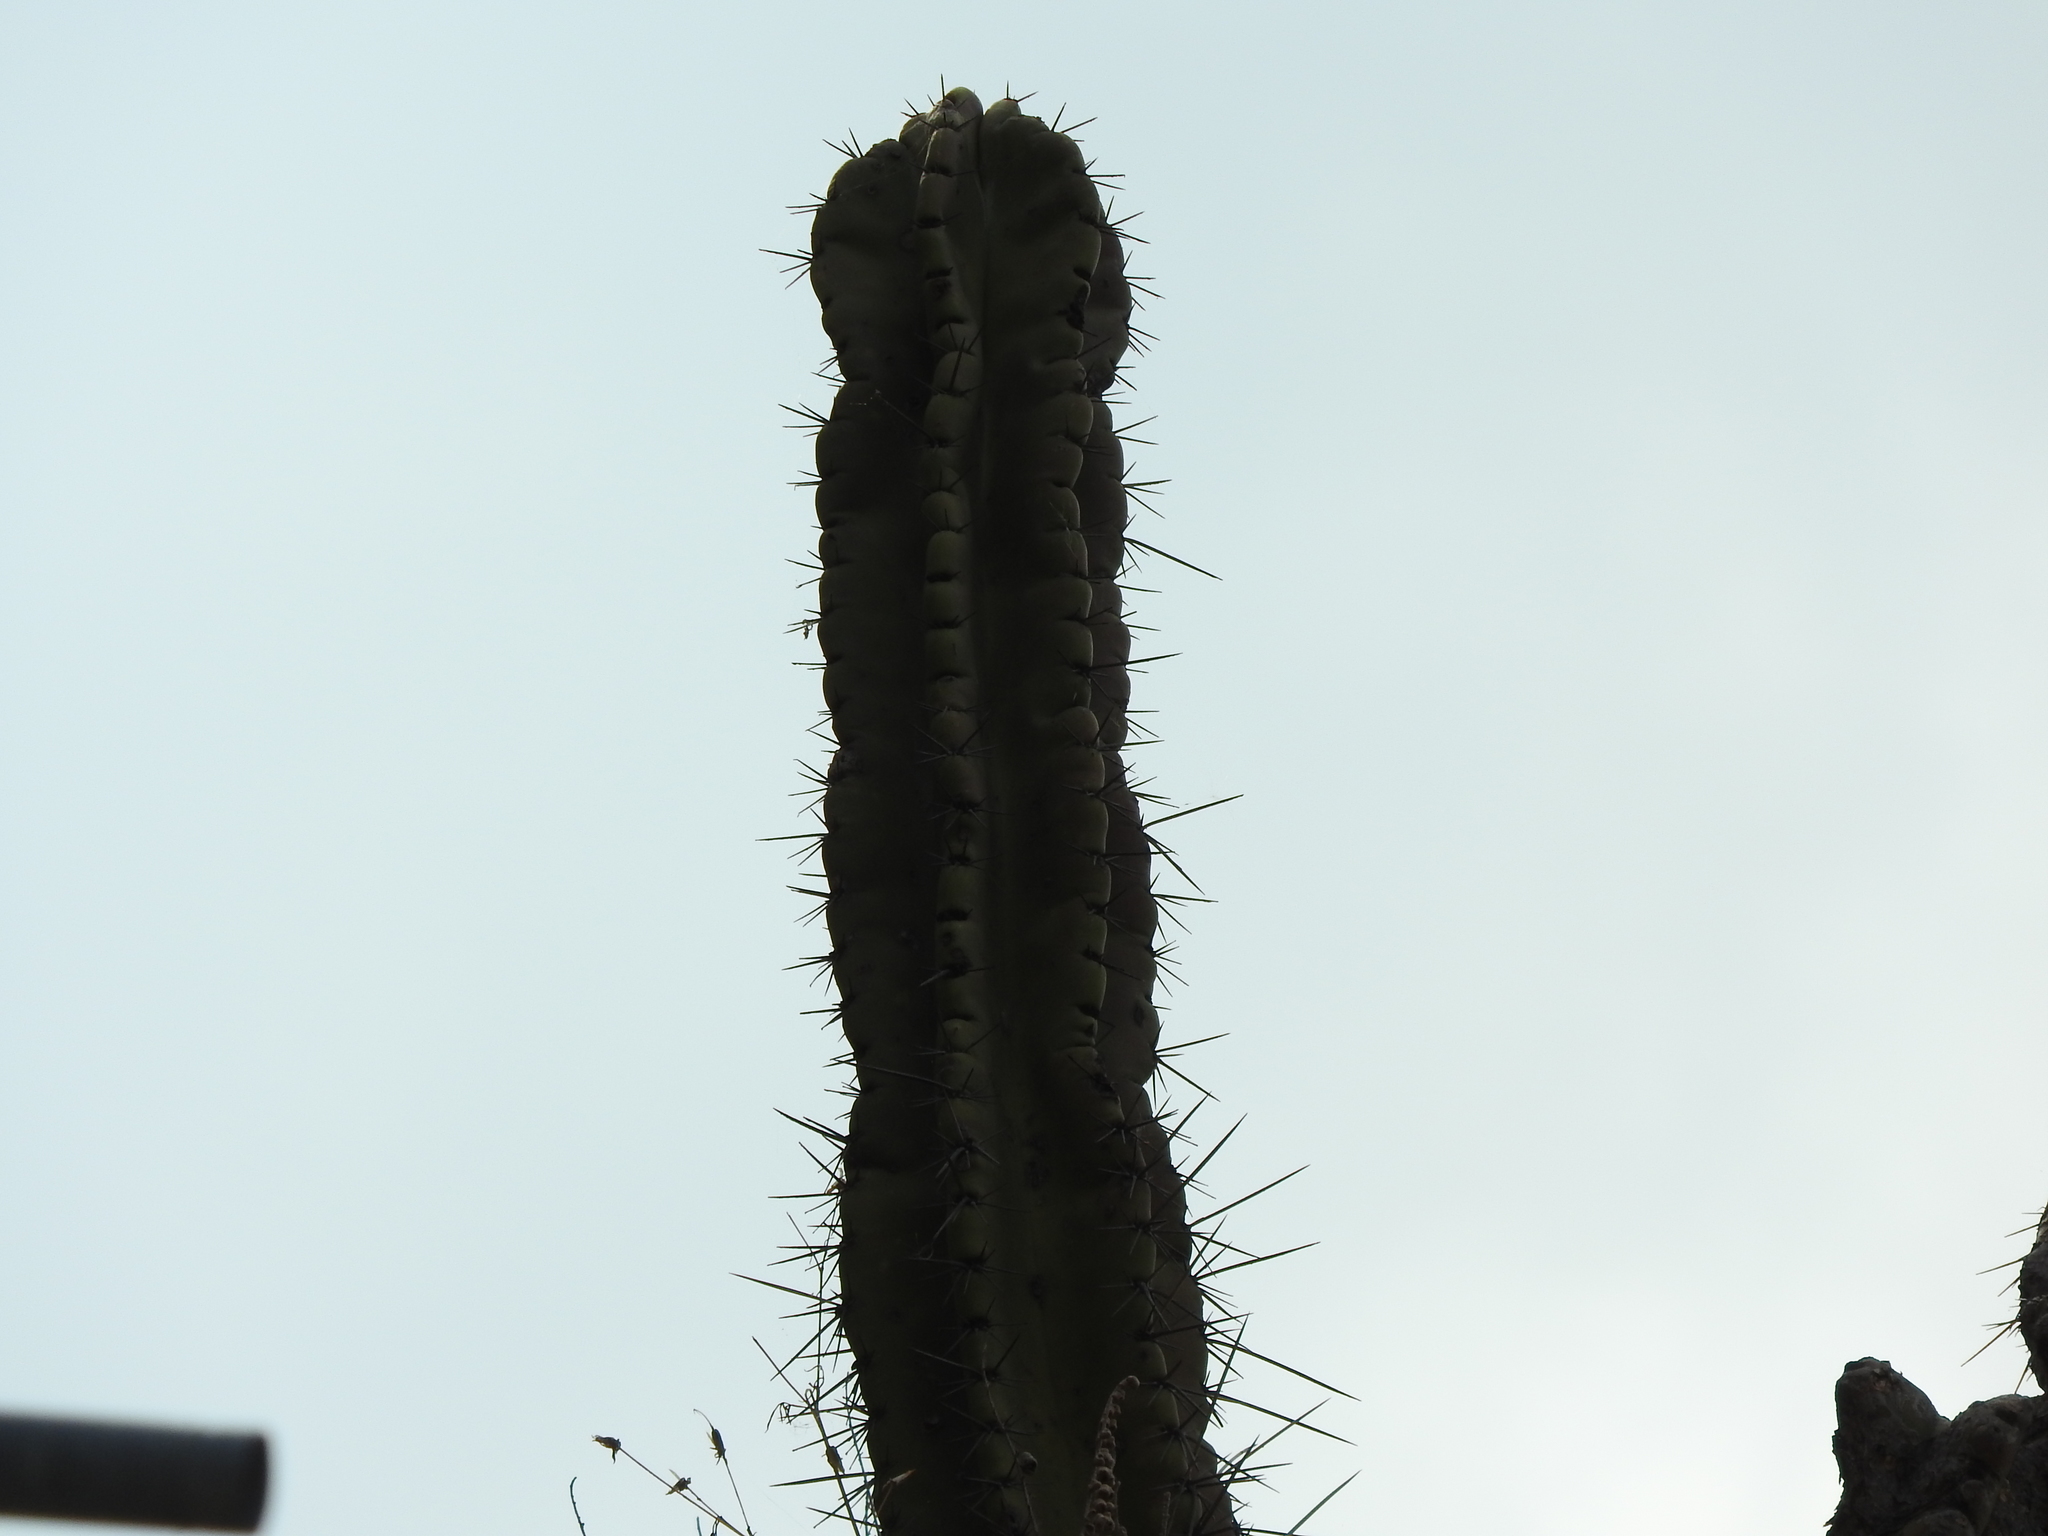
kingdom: Plantae
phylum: Tracheophyta
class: Magnoliopsida
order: Caryophyllales
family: Cactaceae
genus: Stenocereus
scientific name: Stenocereus queretaroensis
